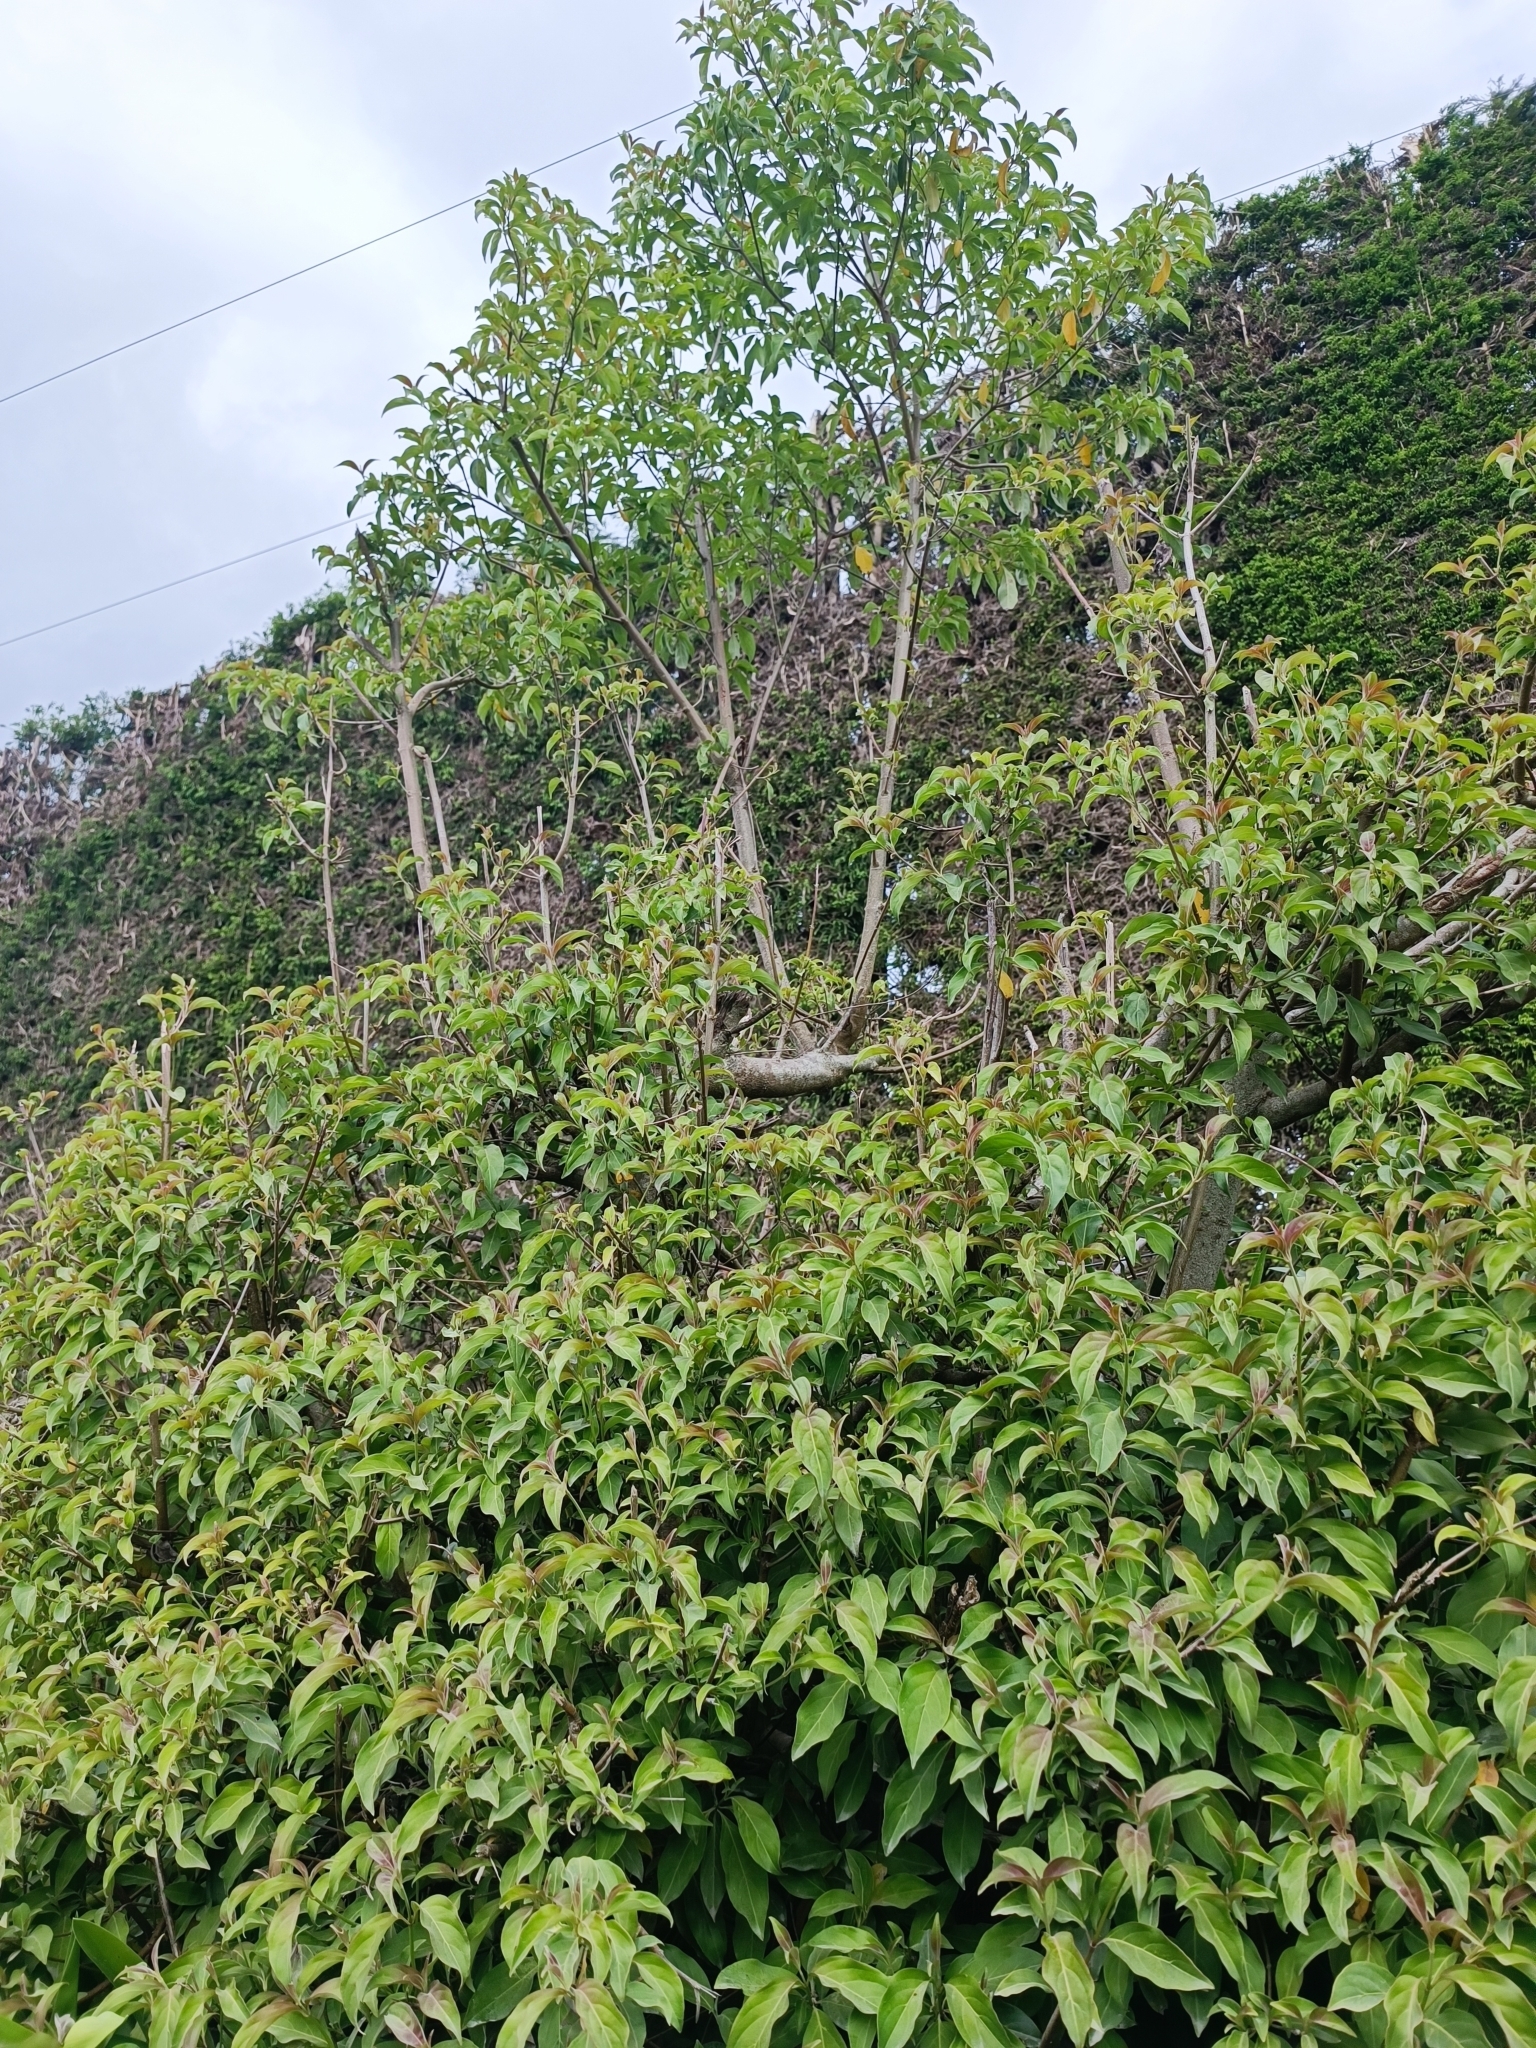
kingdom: Plantae
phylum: Tracheophyta
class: Magnoliopsida
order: Cornales
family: Cornaceae
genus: Cornus
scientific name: Cornus capitata
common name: Bentham's cornel
